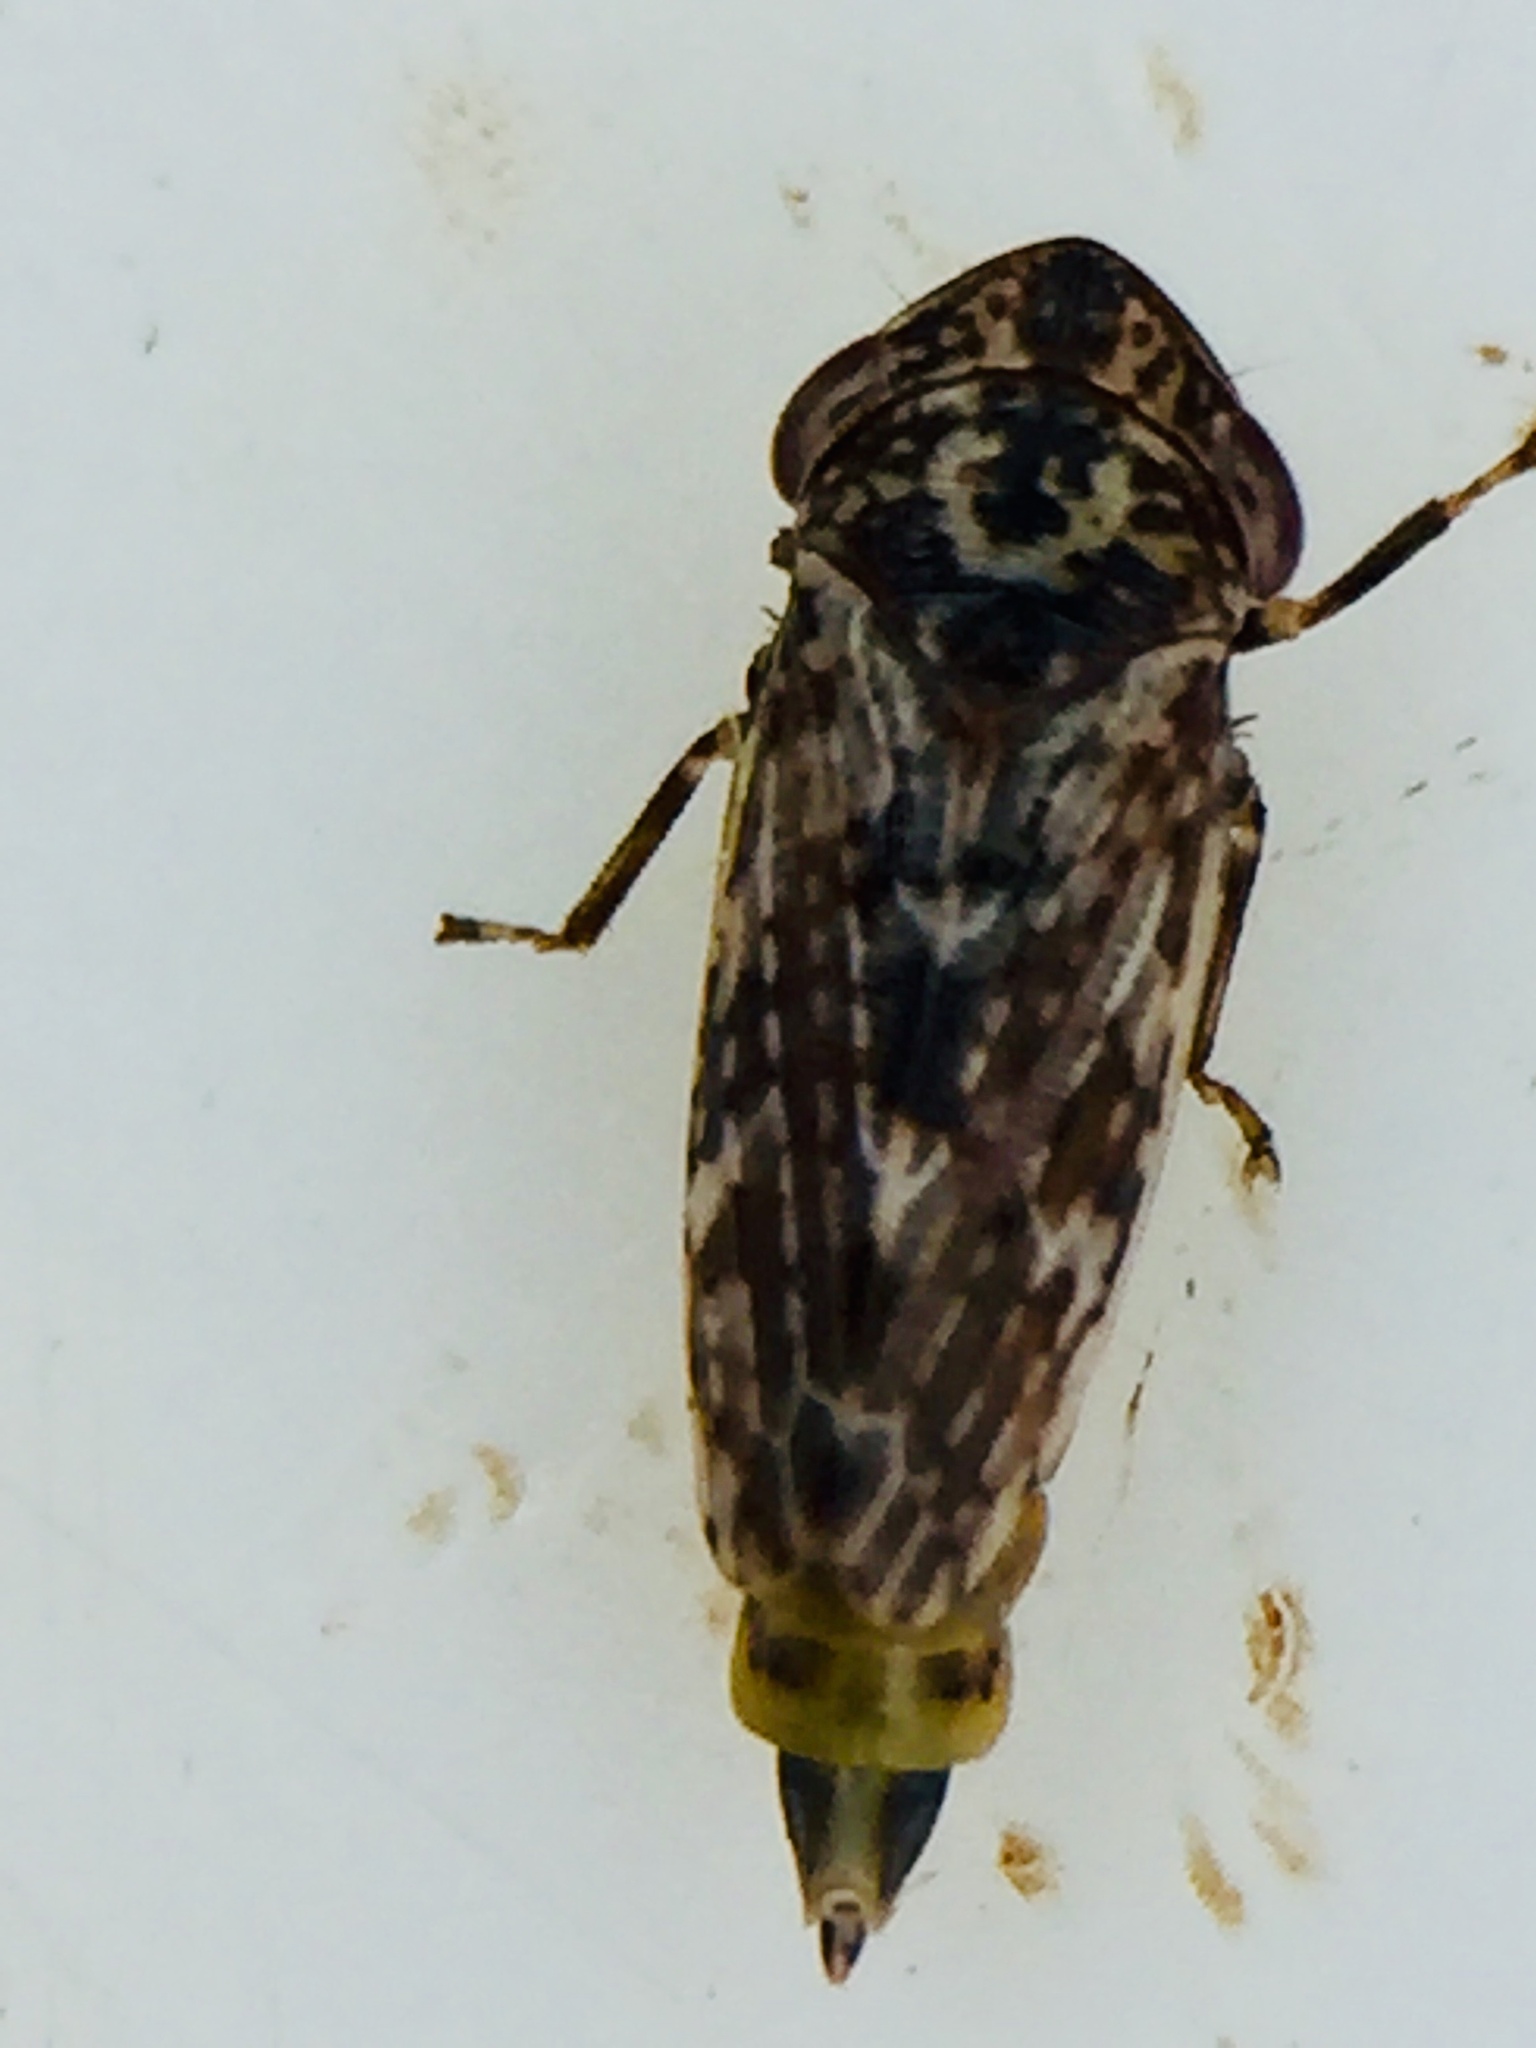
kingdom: Animalia
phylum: Arthropoda
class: Insecta
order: Hemiptera
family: Cicadellidae
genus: Novothymbris
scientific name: Novothymbris notata
